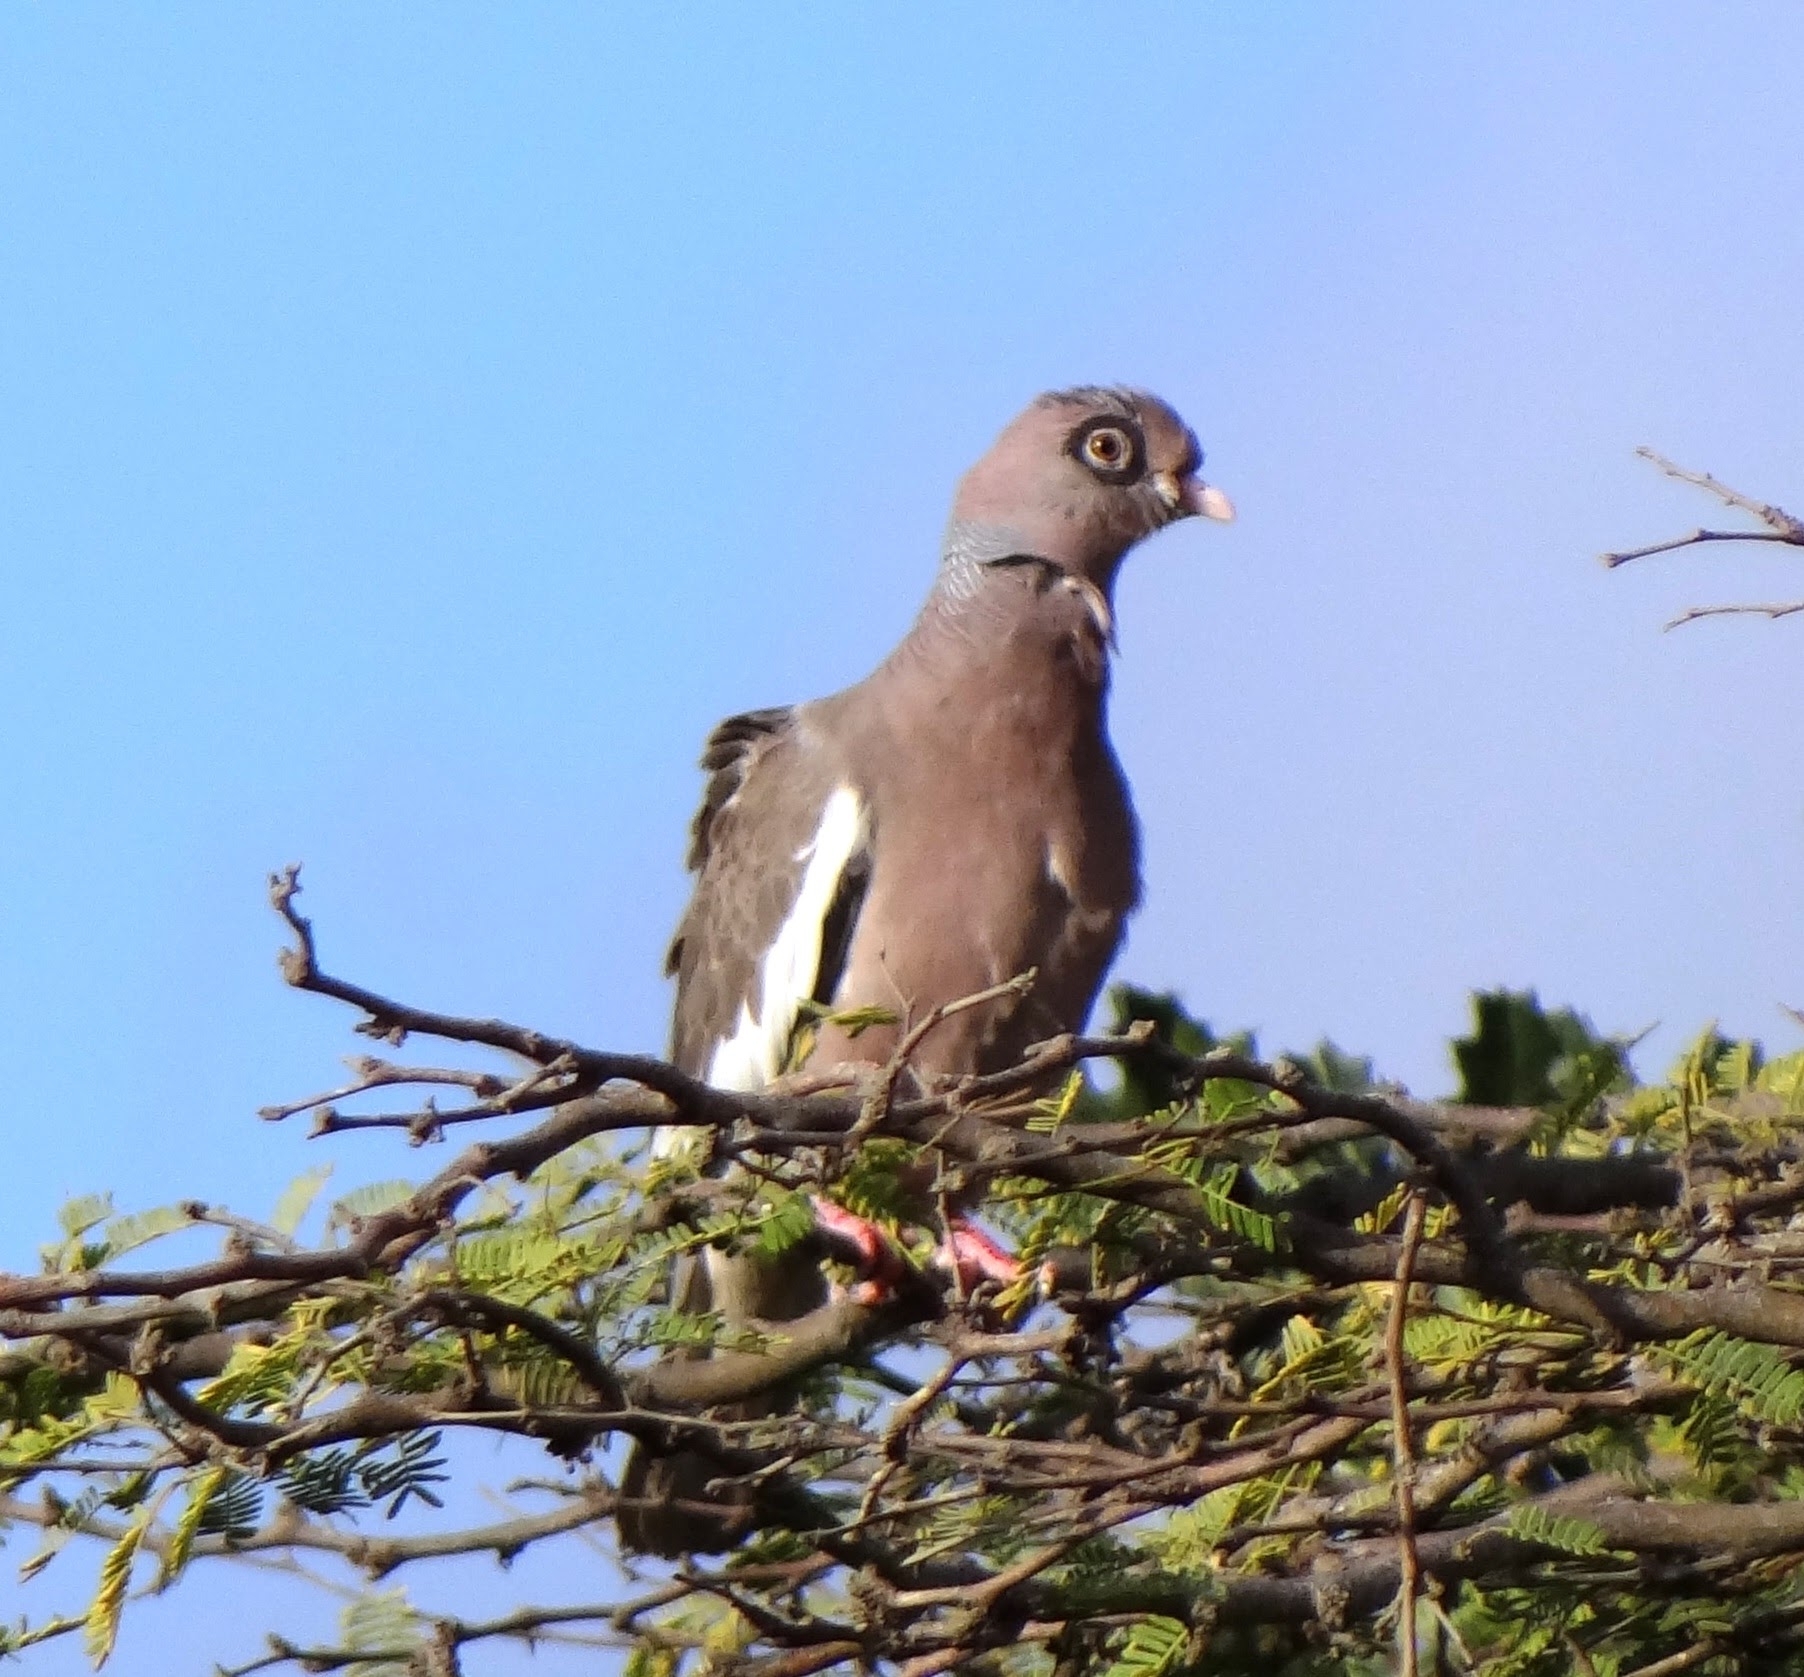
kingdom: Animalia
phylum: Chordata
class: Aves
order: Columbiformes
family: Columbidae
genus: Patagioenas
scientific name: Patagioenas corensis
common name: Bare-eyed pigeon
